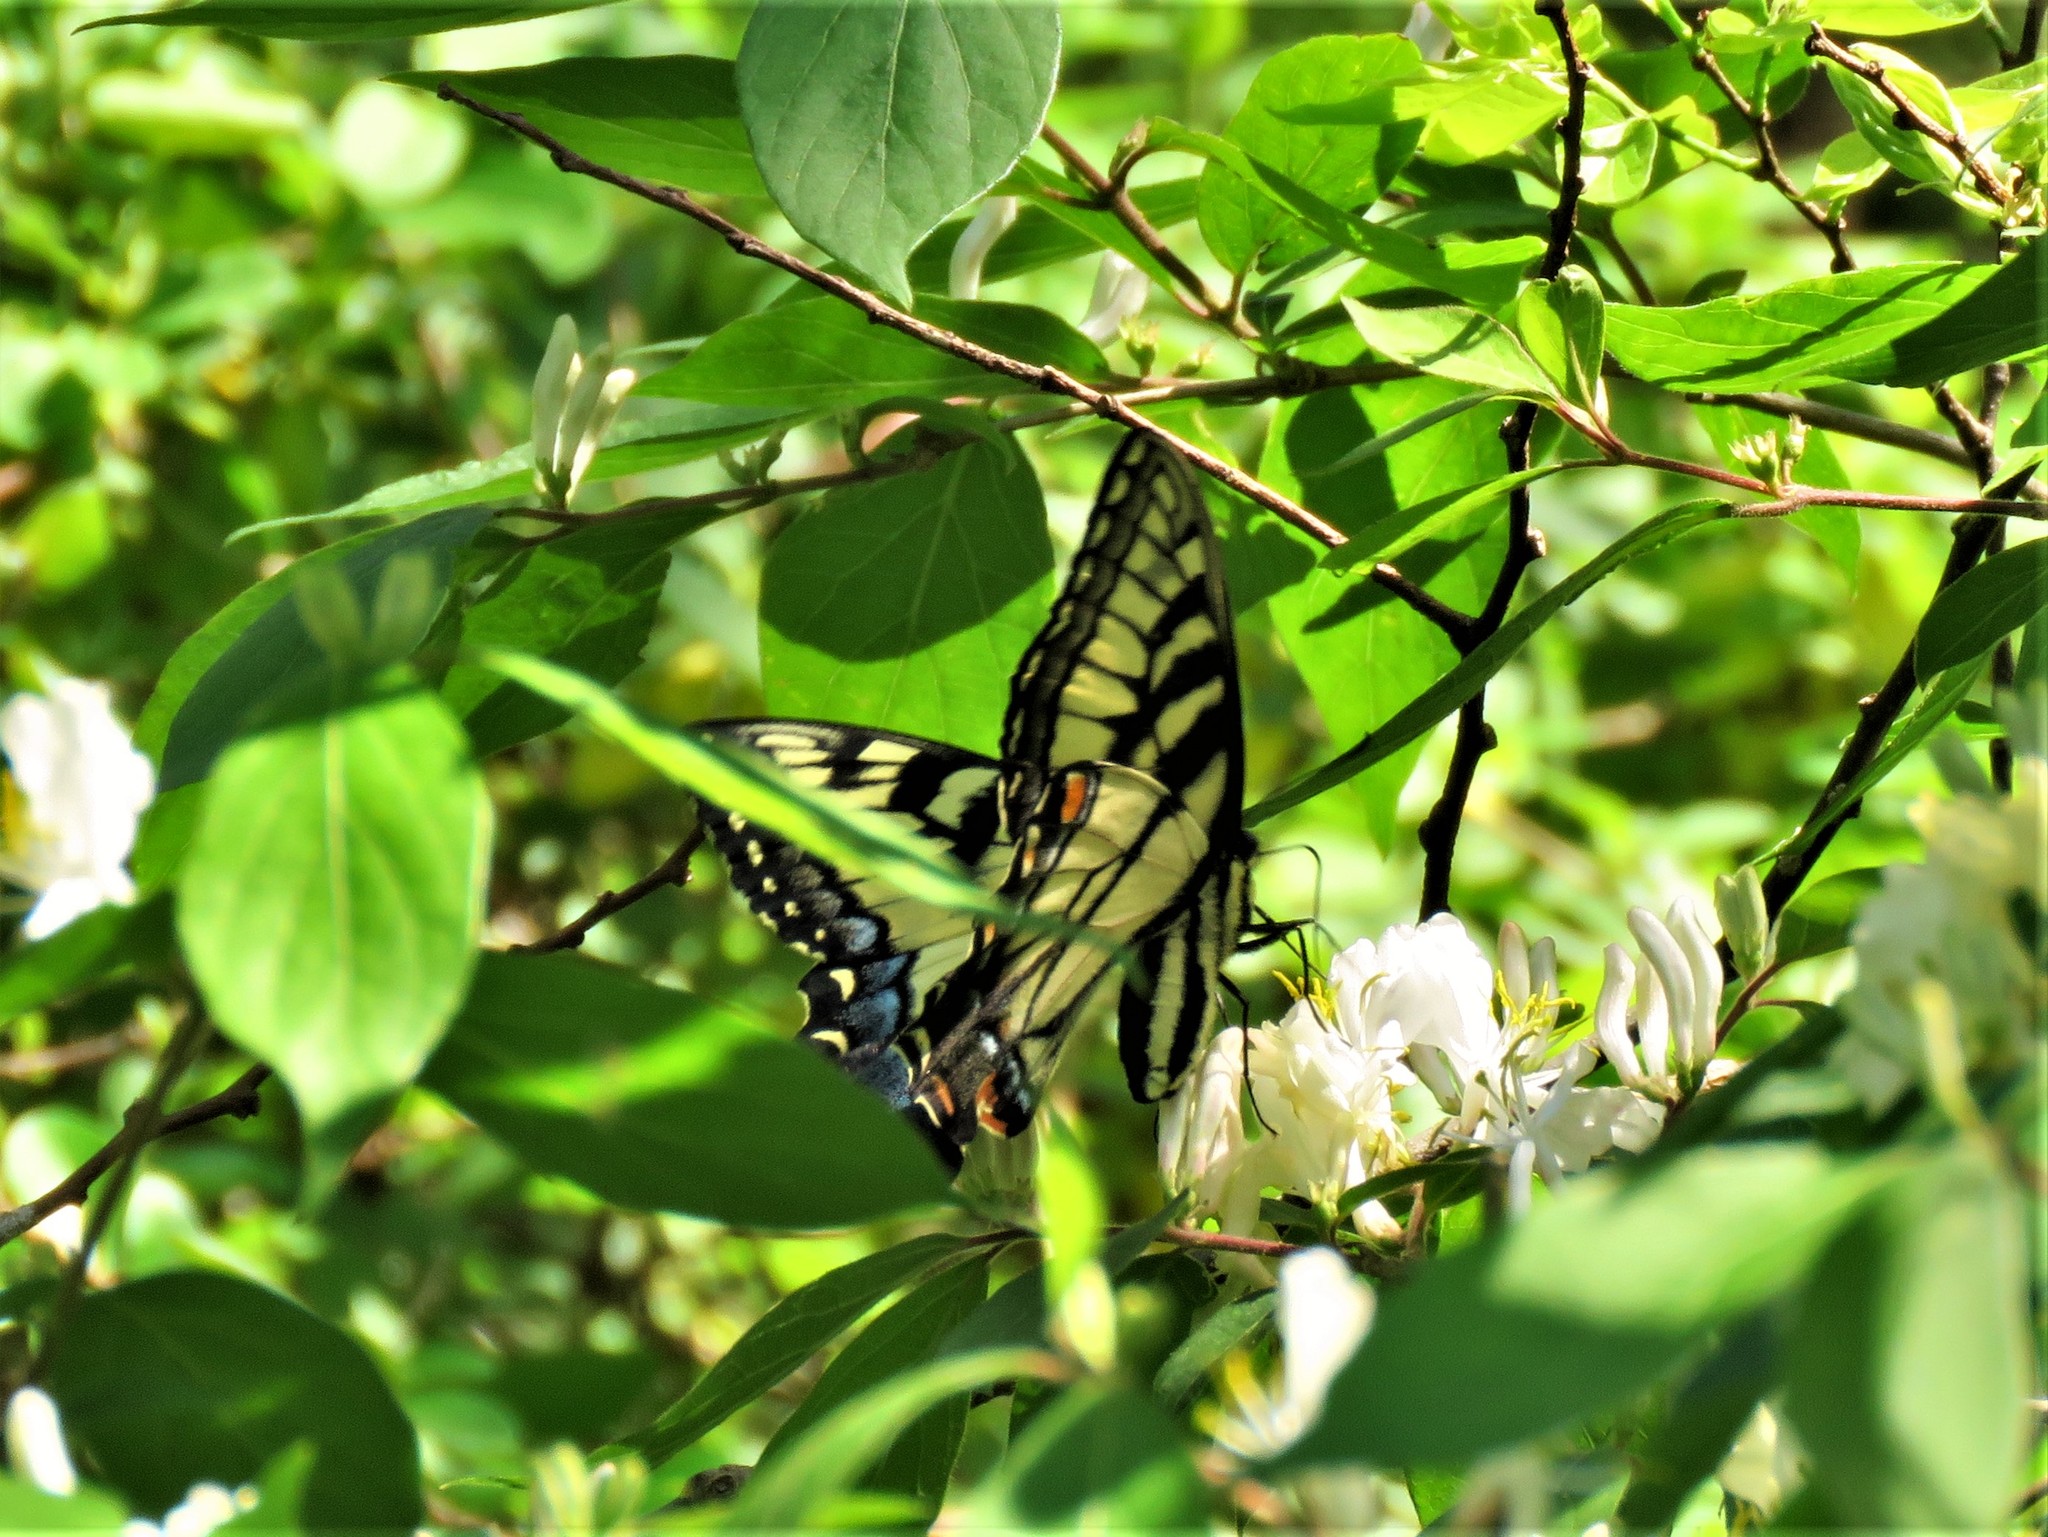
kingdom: Animalia
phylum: Arthropoda
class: Insecta
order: Lepidoptera
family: Papilionidae
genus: Papilio
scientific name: Papilio glaucus
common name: Tiger swallowtail
